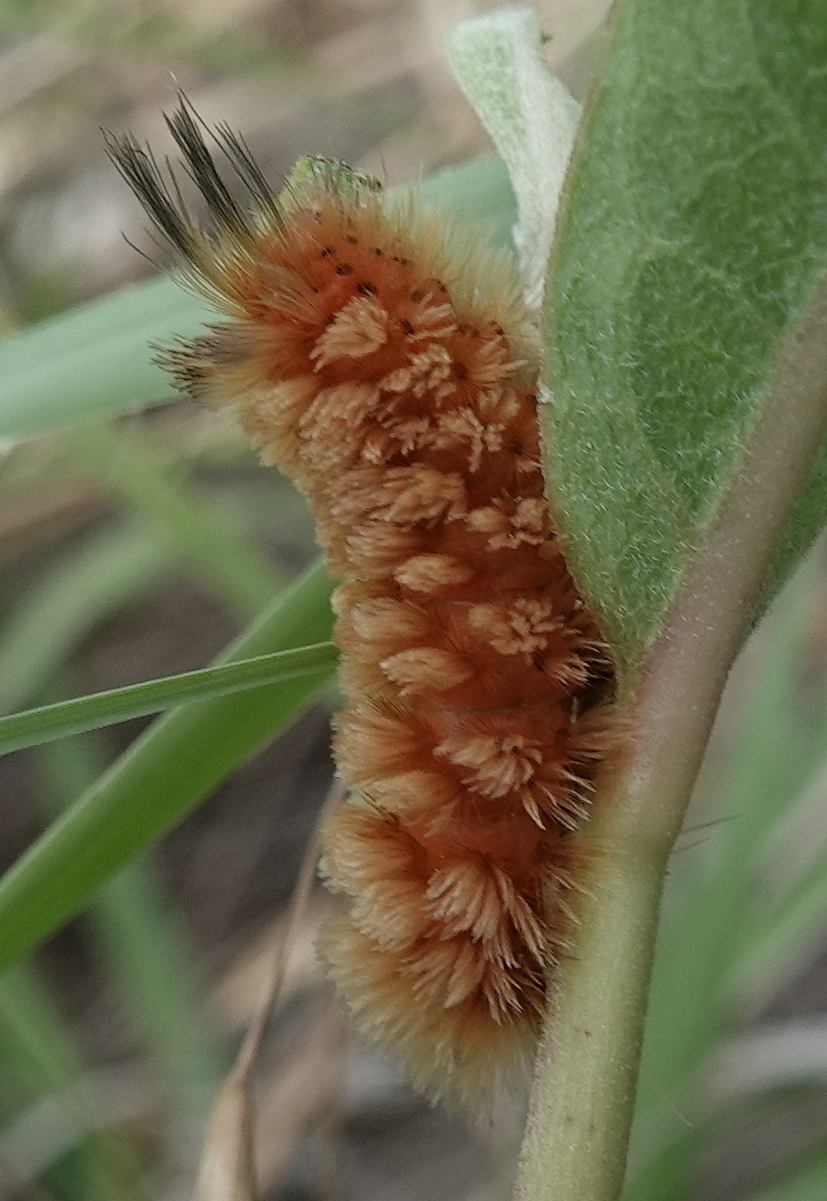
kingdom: Animalia
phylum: Arthropoda
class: Insecta
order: Lepidoptera
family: Erebidae
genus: Cycnia
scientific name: Cycnia collaris
